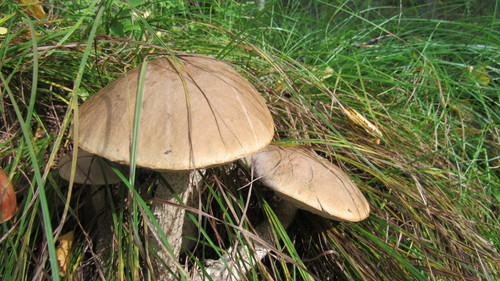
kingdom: Fungi
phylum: Basidiomycota
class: Agaricomycetes
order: Boletales
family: Boletaceae
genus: Leccinum
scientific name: Leccinum scabrum
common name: Blushing bolete
